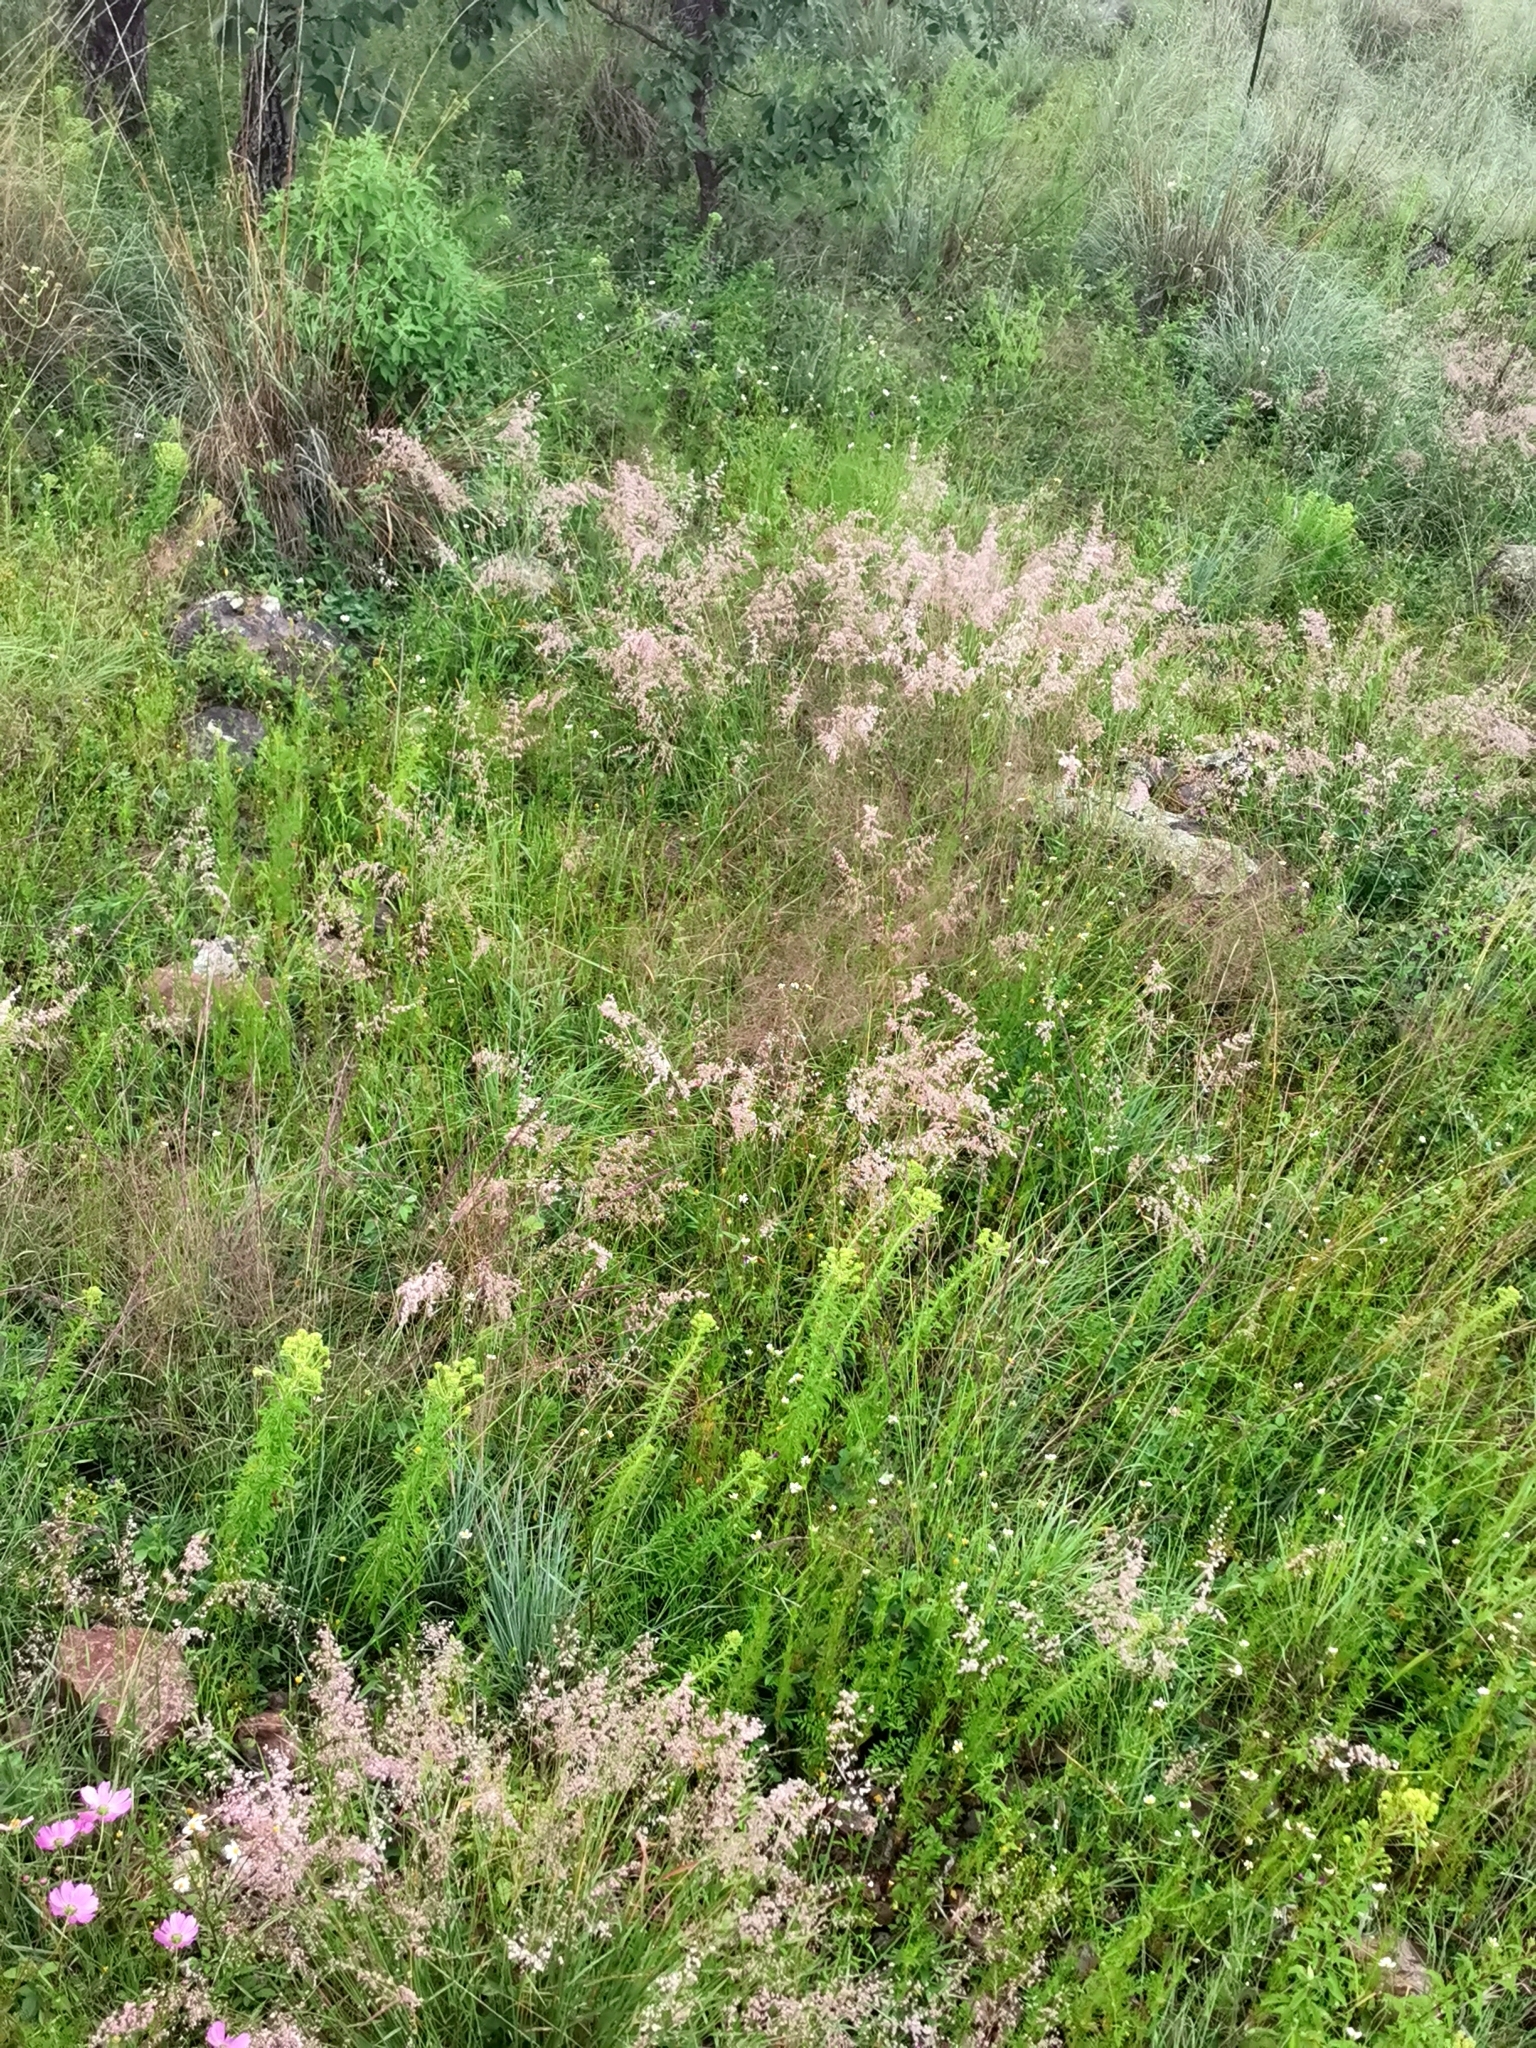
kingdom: Plantae
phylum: Tracheophyta
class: Liliopsida
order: Poales
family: Poaceae
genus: Melinis
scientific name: Melinis repens
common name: Rose natal grass
